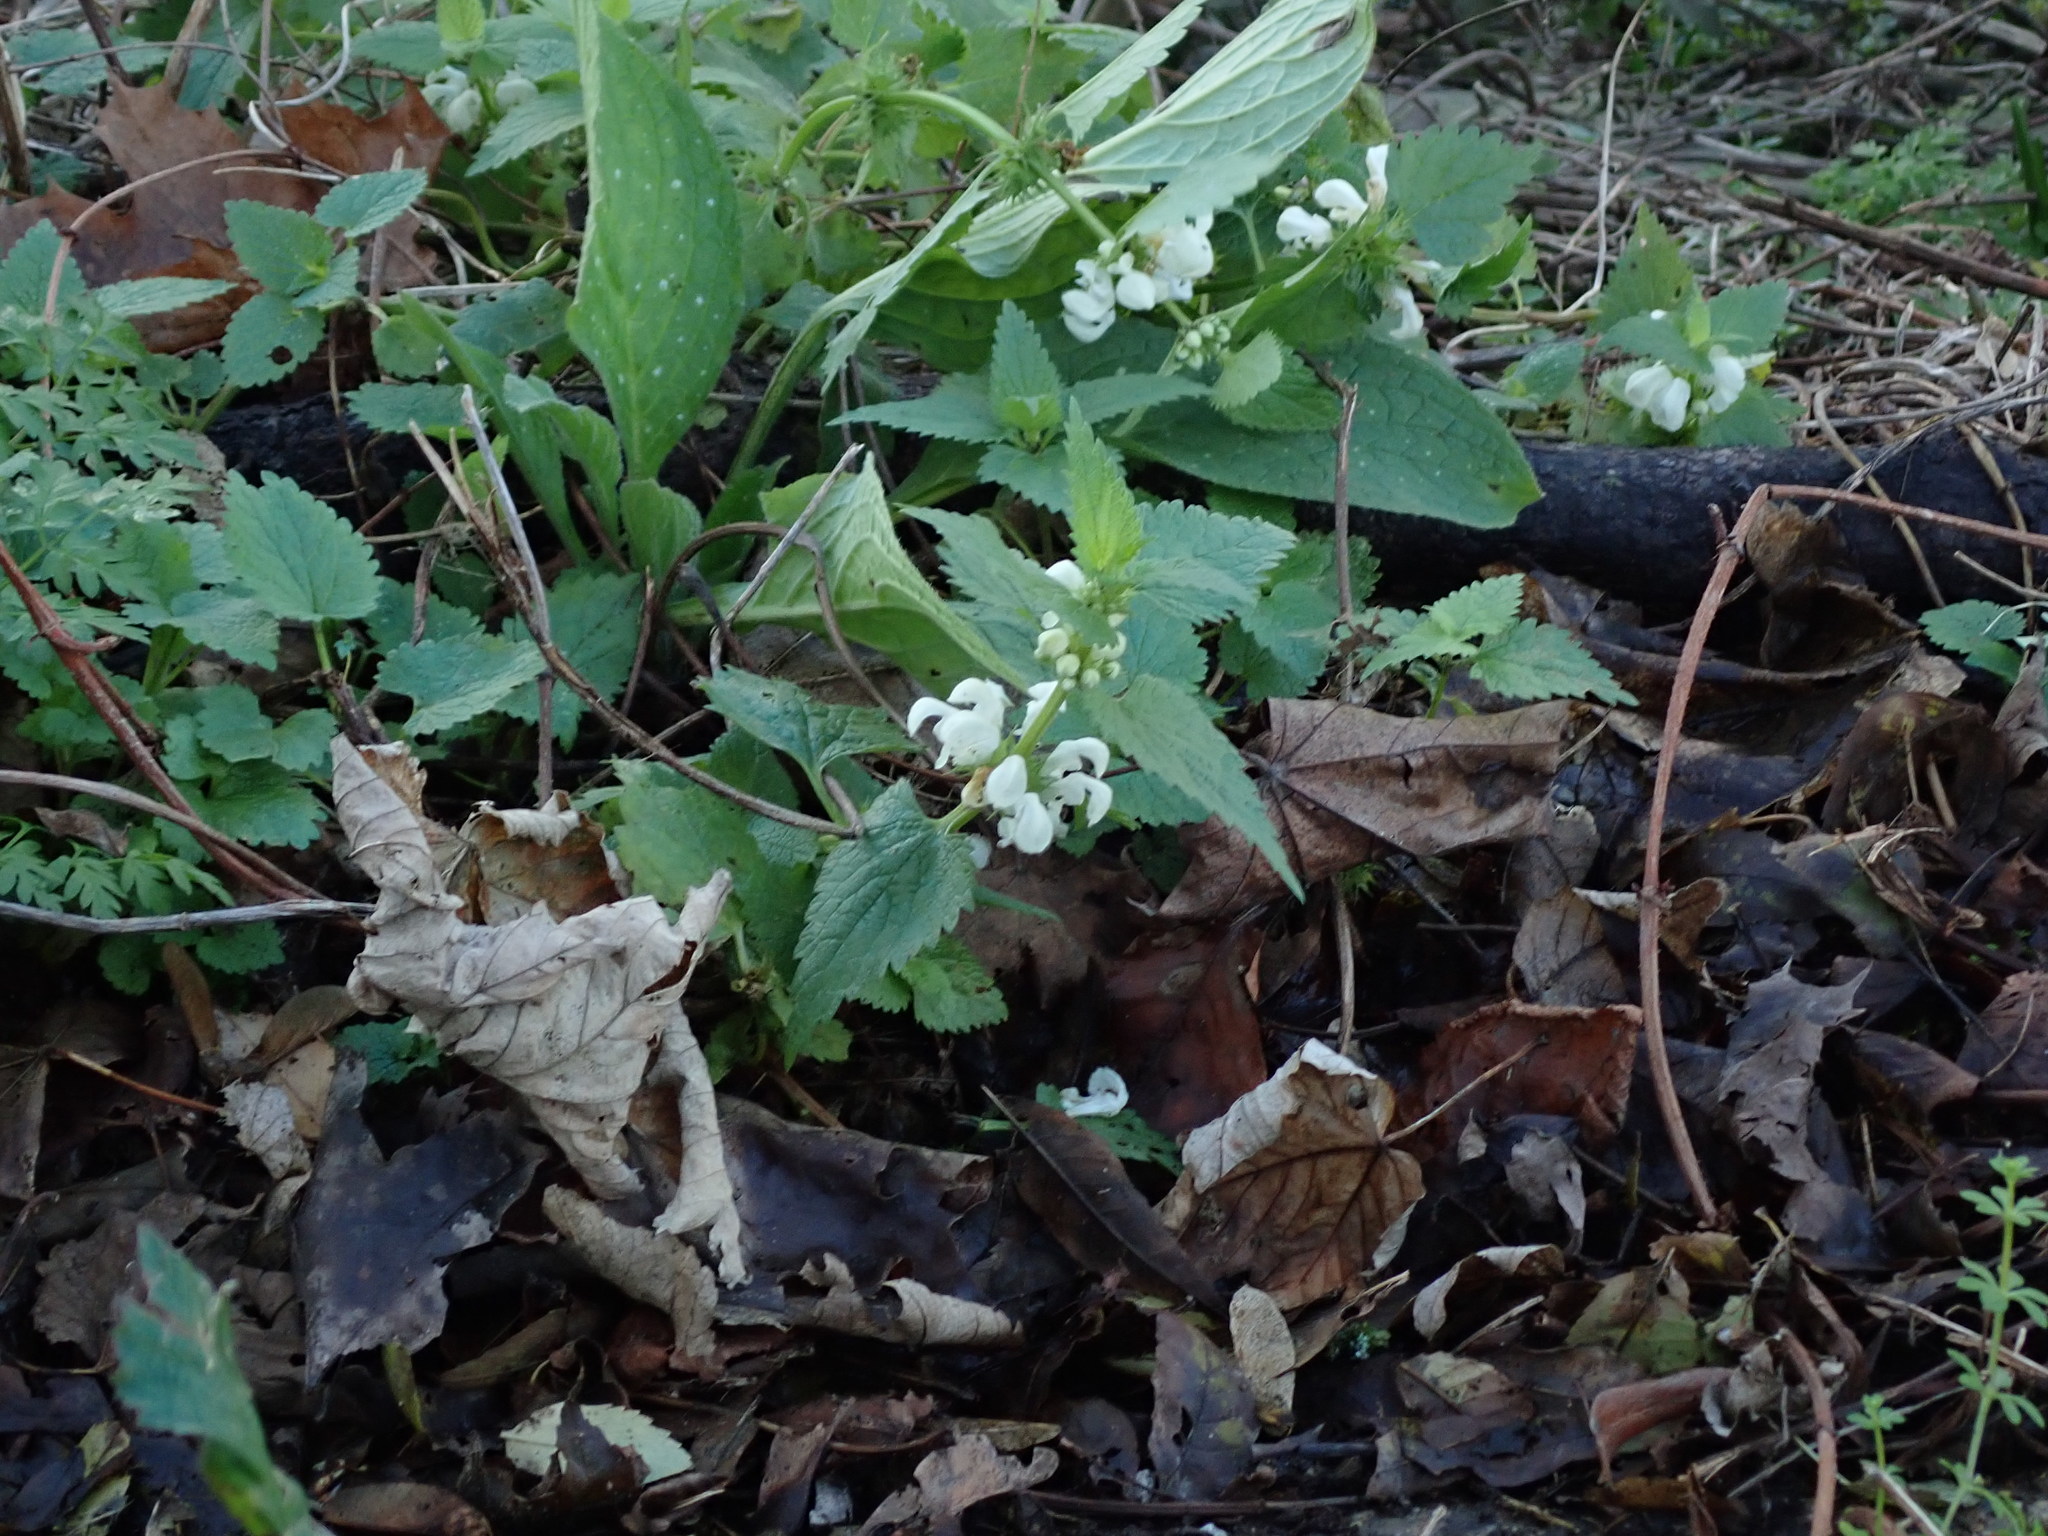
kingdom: Plantae
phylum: Tracheophyta
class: Magnoliopsida
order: Lamiales
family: Lamiaceae
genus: Lamium
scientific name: Lamium album
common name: White dead-nettle
